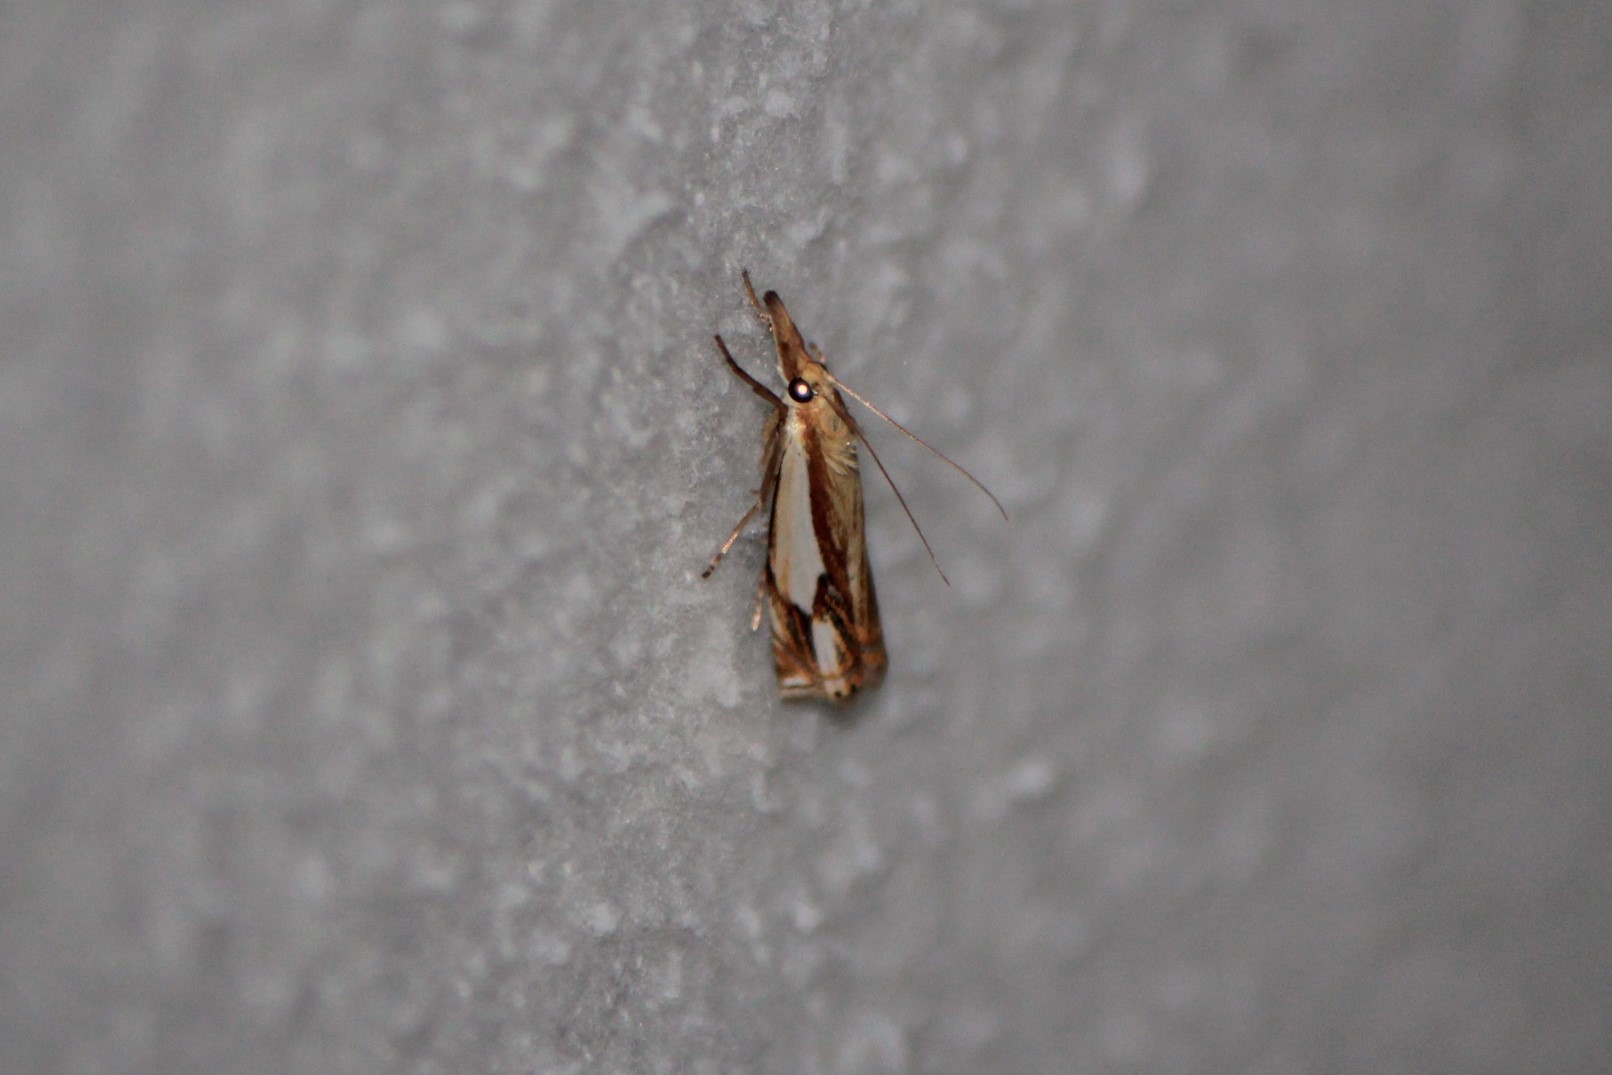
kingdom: Animalia
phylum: Arthropoda
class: Insecta
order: Lepidoptera
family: Crambidae
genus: Crambus
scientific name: Crambus agitatellus
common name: Double-banded grass-veneer
